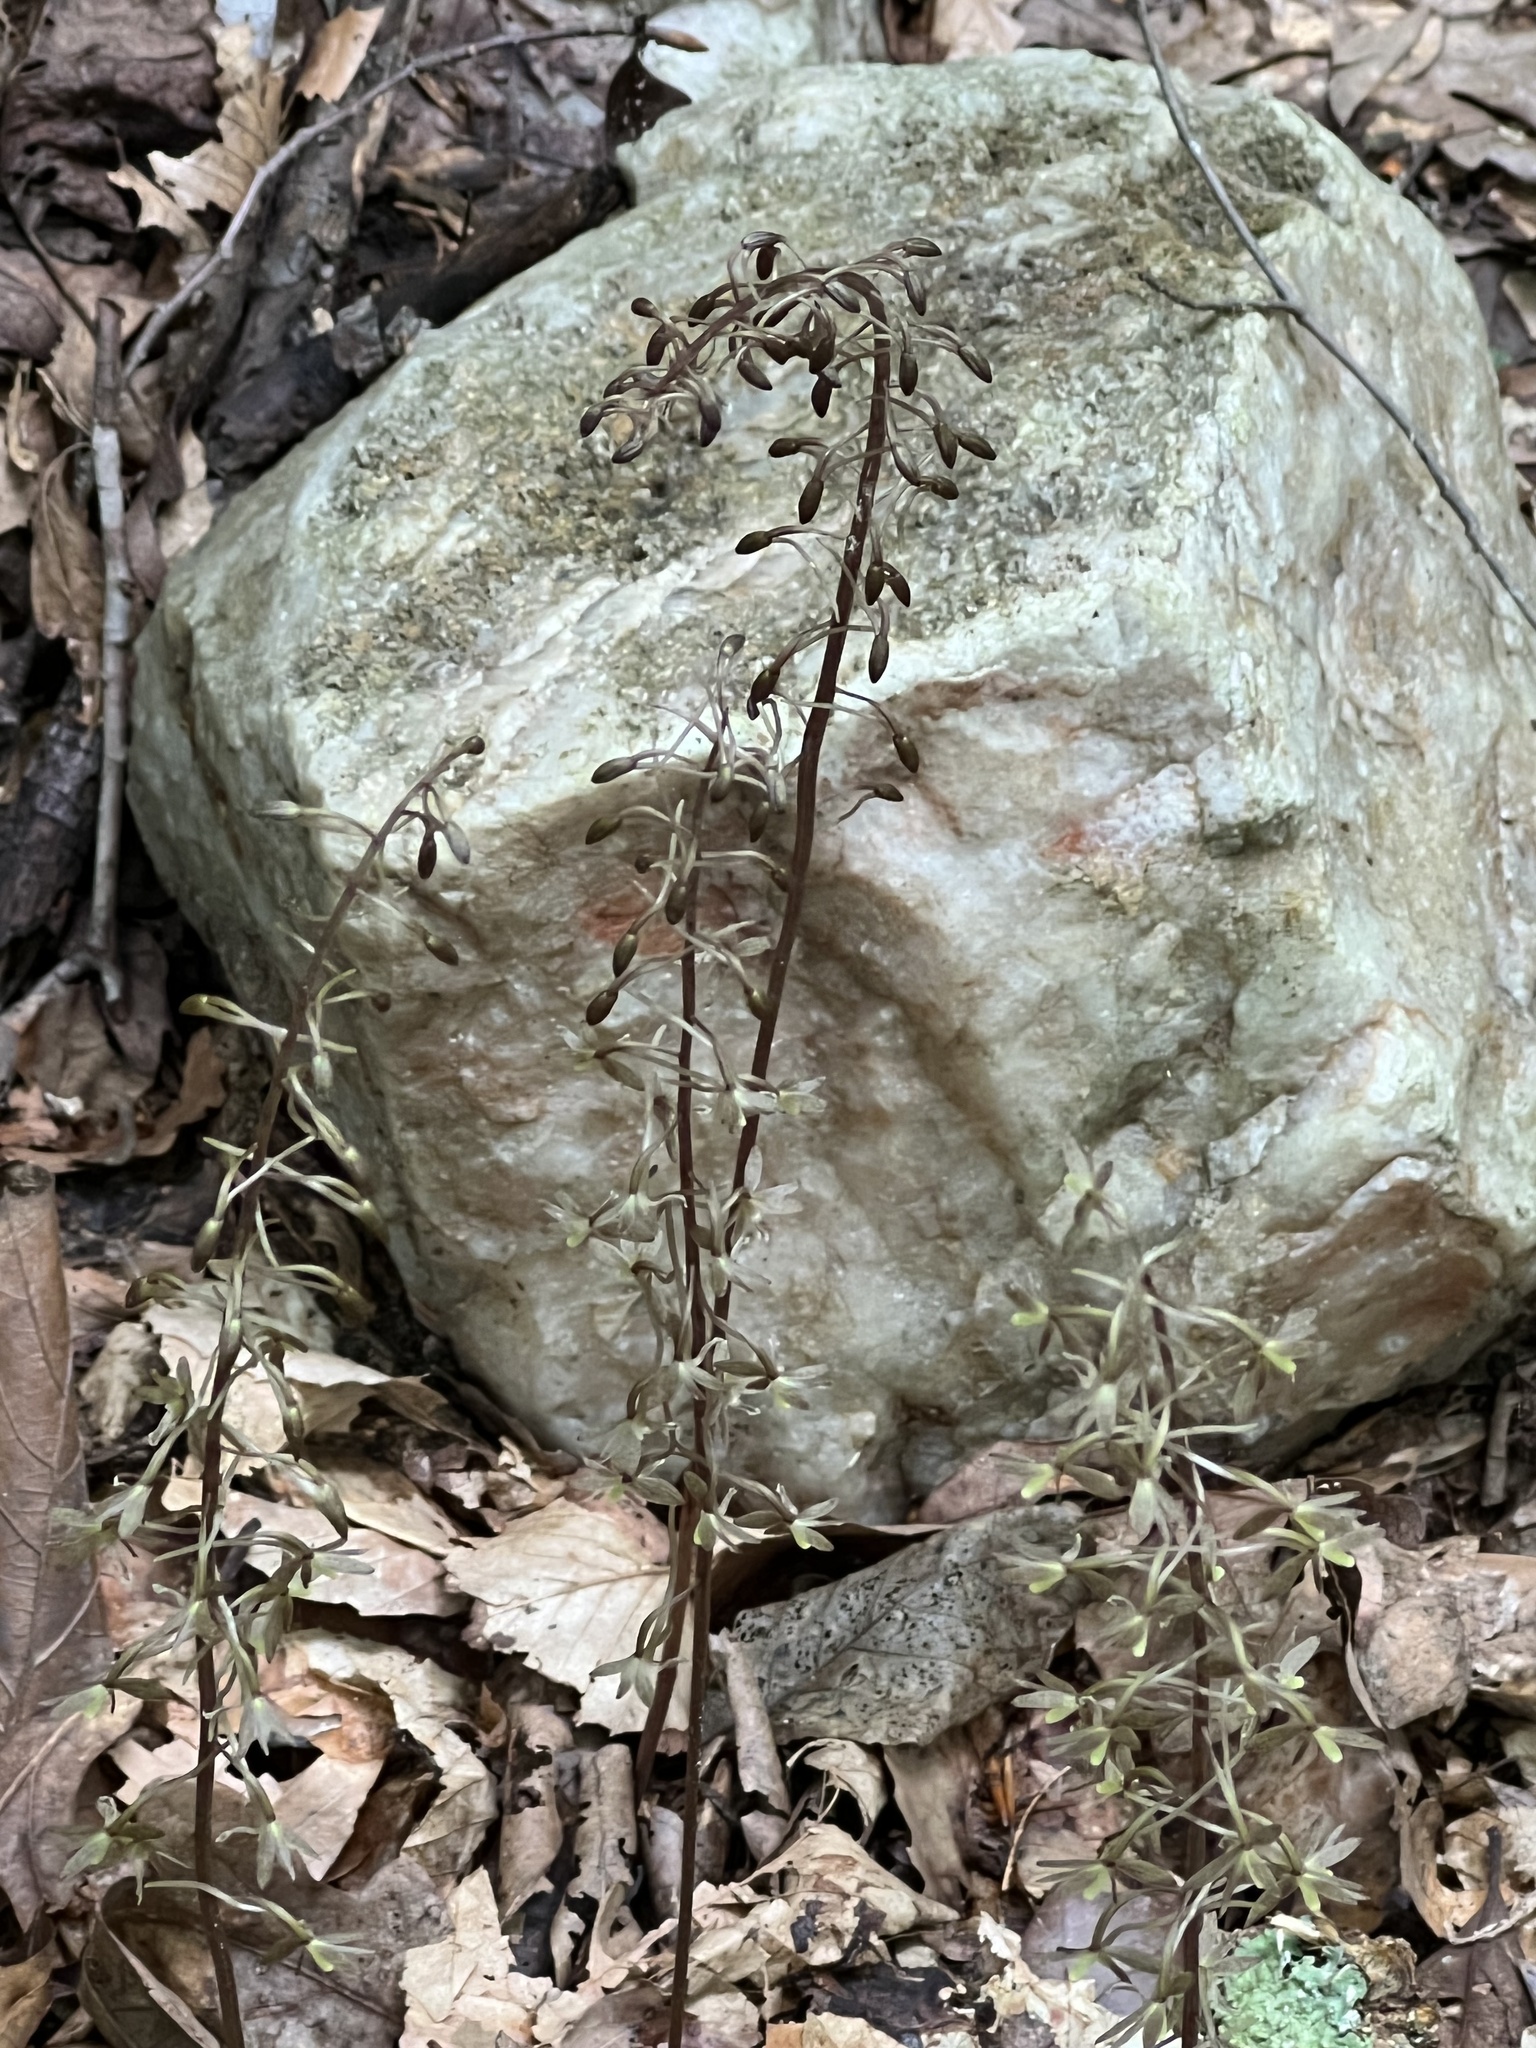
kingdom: Plantae
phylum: Tracheophyta
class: Liliopsida
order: Asparagales
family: Orchidaceae
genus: Tipularia
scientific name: Tipularia discolor
